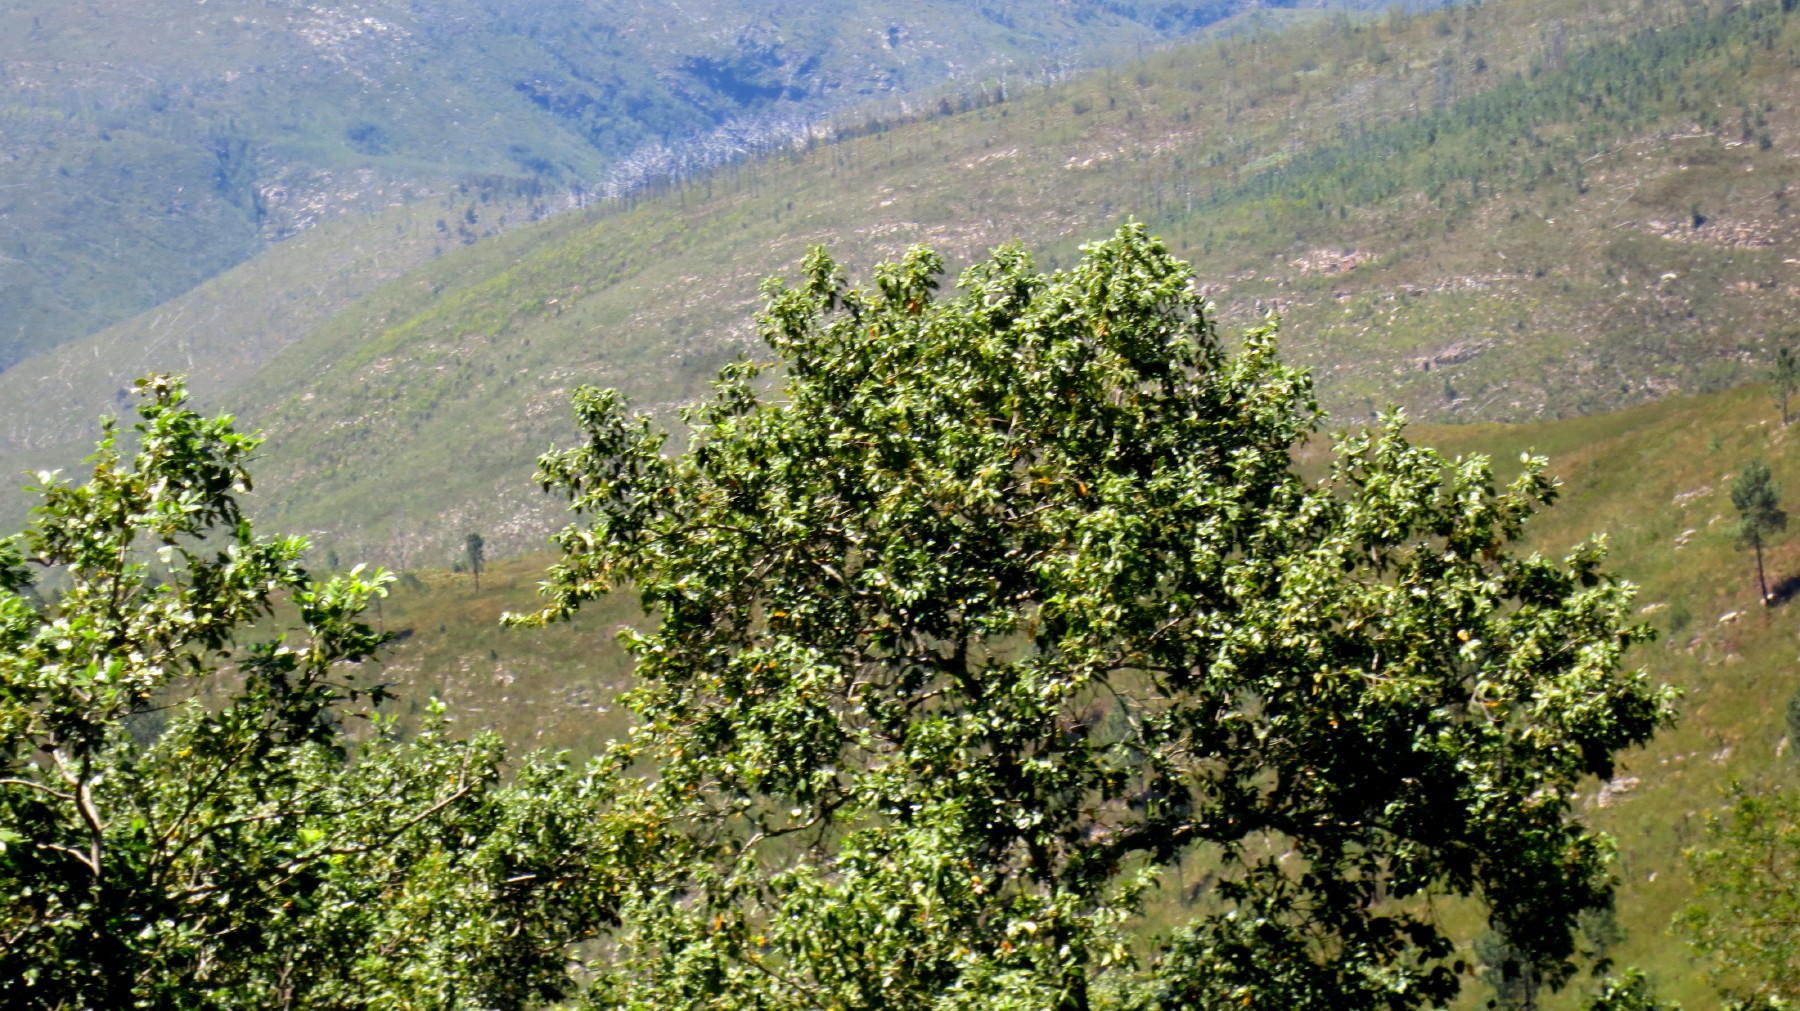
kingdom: Plantae
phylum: Tracheophyta
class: Magnoliopsida
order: Laurales
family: Lauraceae
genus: Ocotea
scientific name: Ocotea bullata
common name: Black stinkwood
